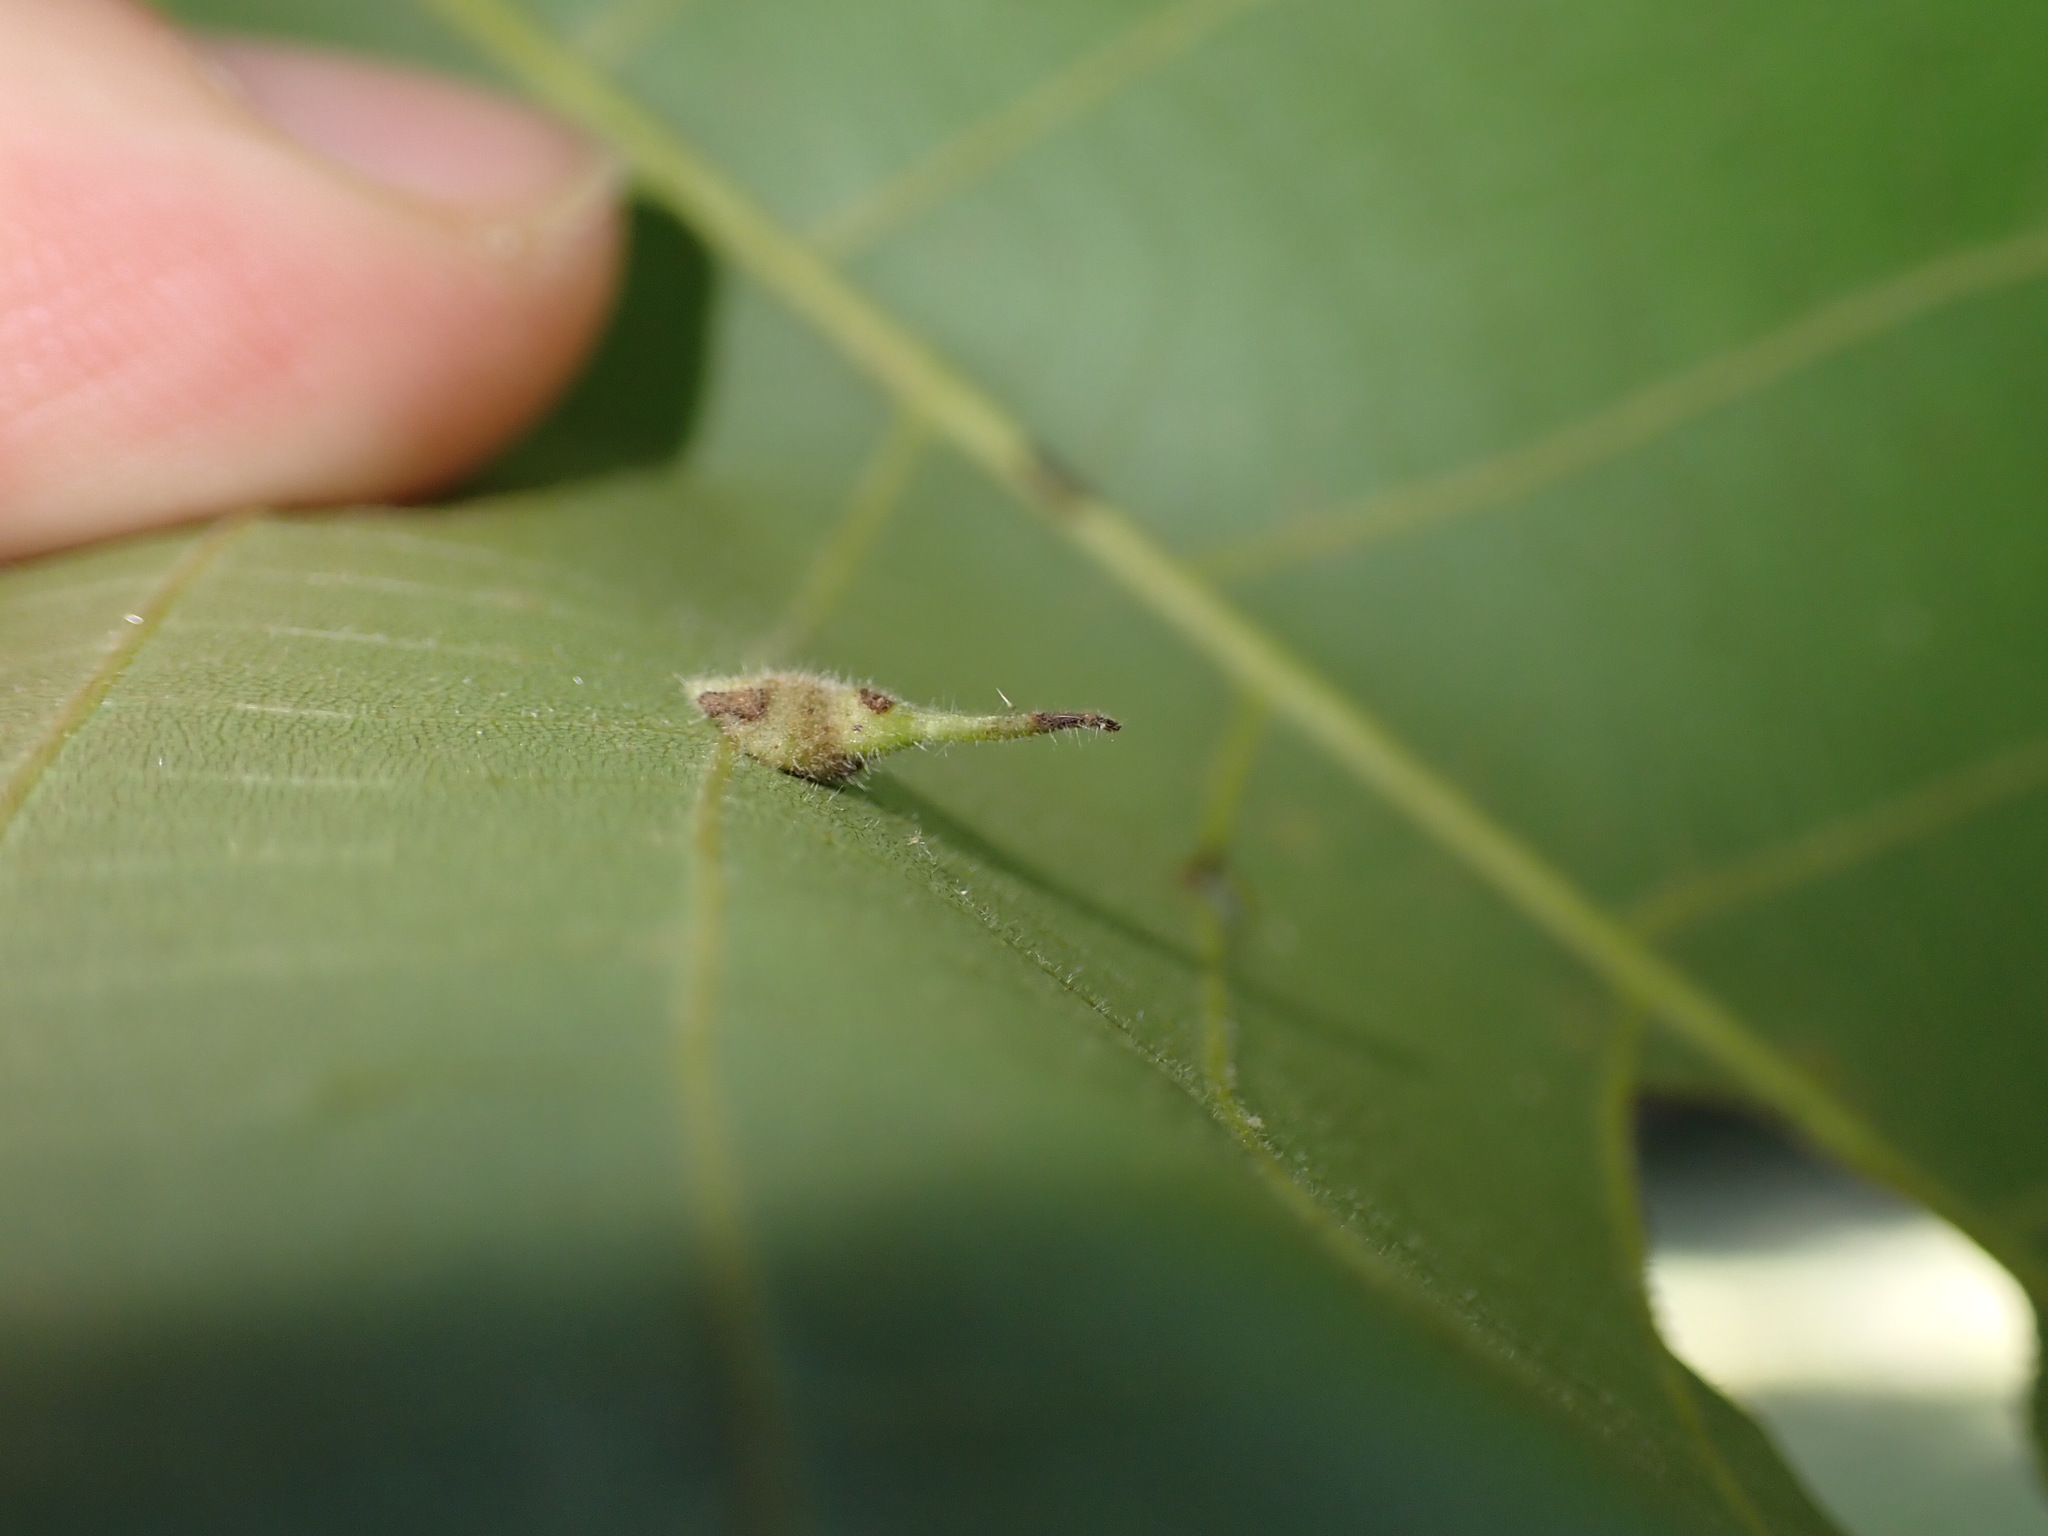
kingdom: Animalia
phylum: Arthropoda
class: Insecta
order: Diptera
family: Cecidomyiidae
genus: Caryomyia
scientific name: Caryomyia inclinata
